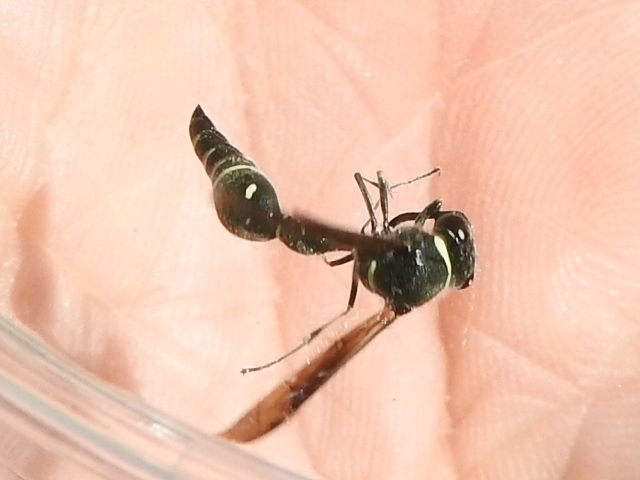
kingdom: Animalia
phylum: Arthropoda
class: Insecta
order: Hymenoptera
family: Vespidae
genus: Eumenes
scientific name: Eumenes fraternus
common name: Fraternal potter wasp
